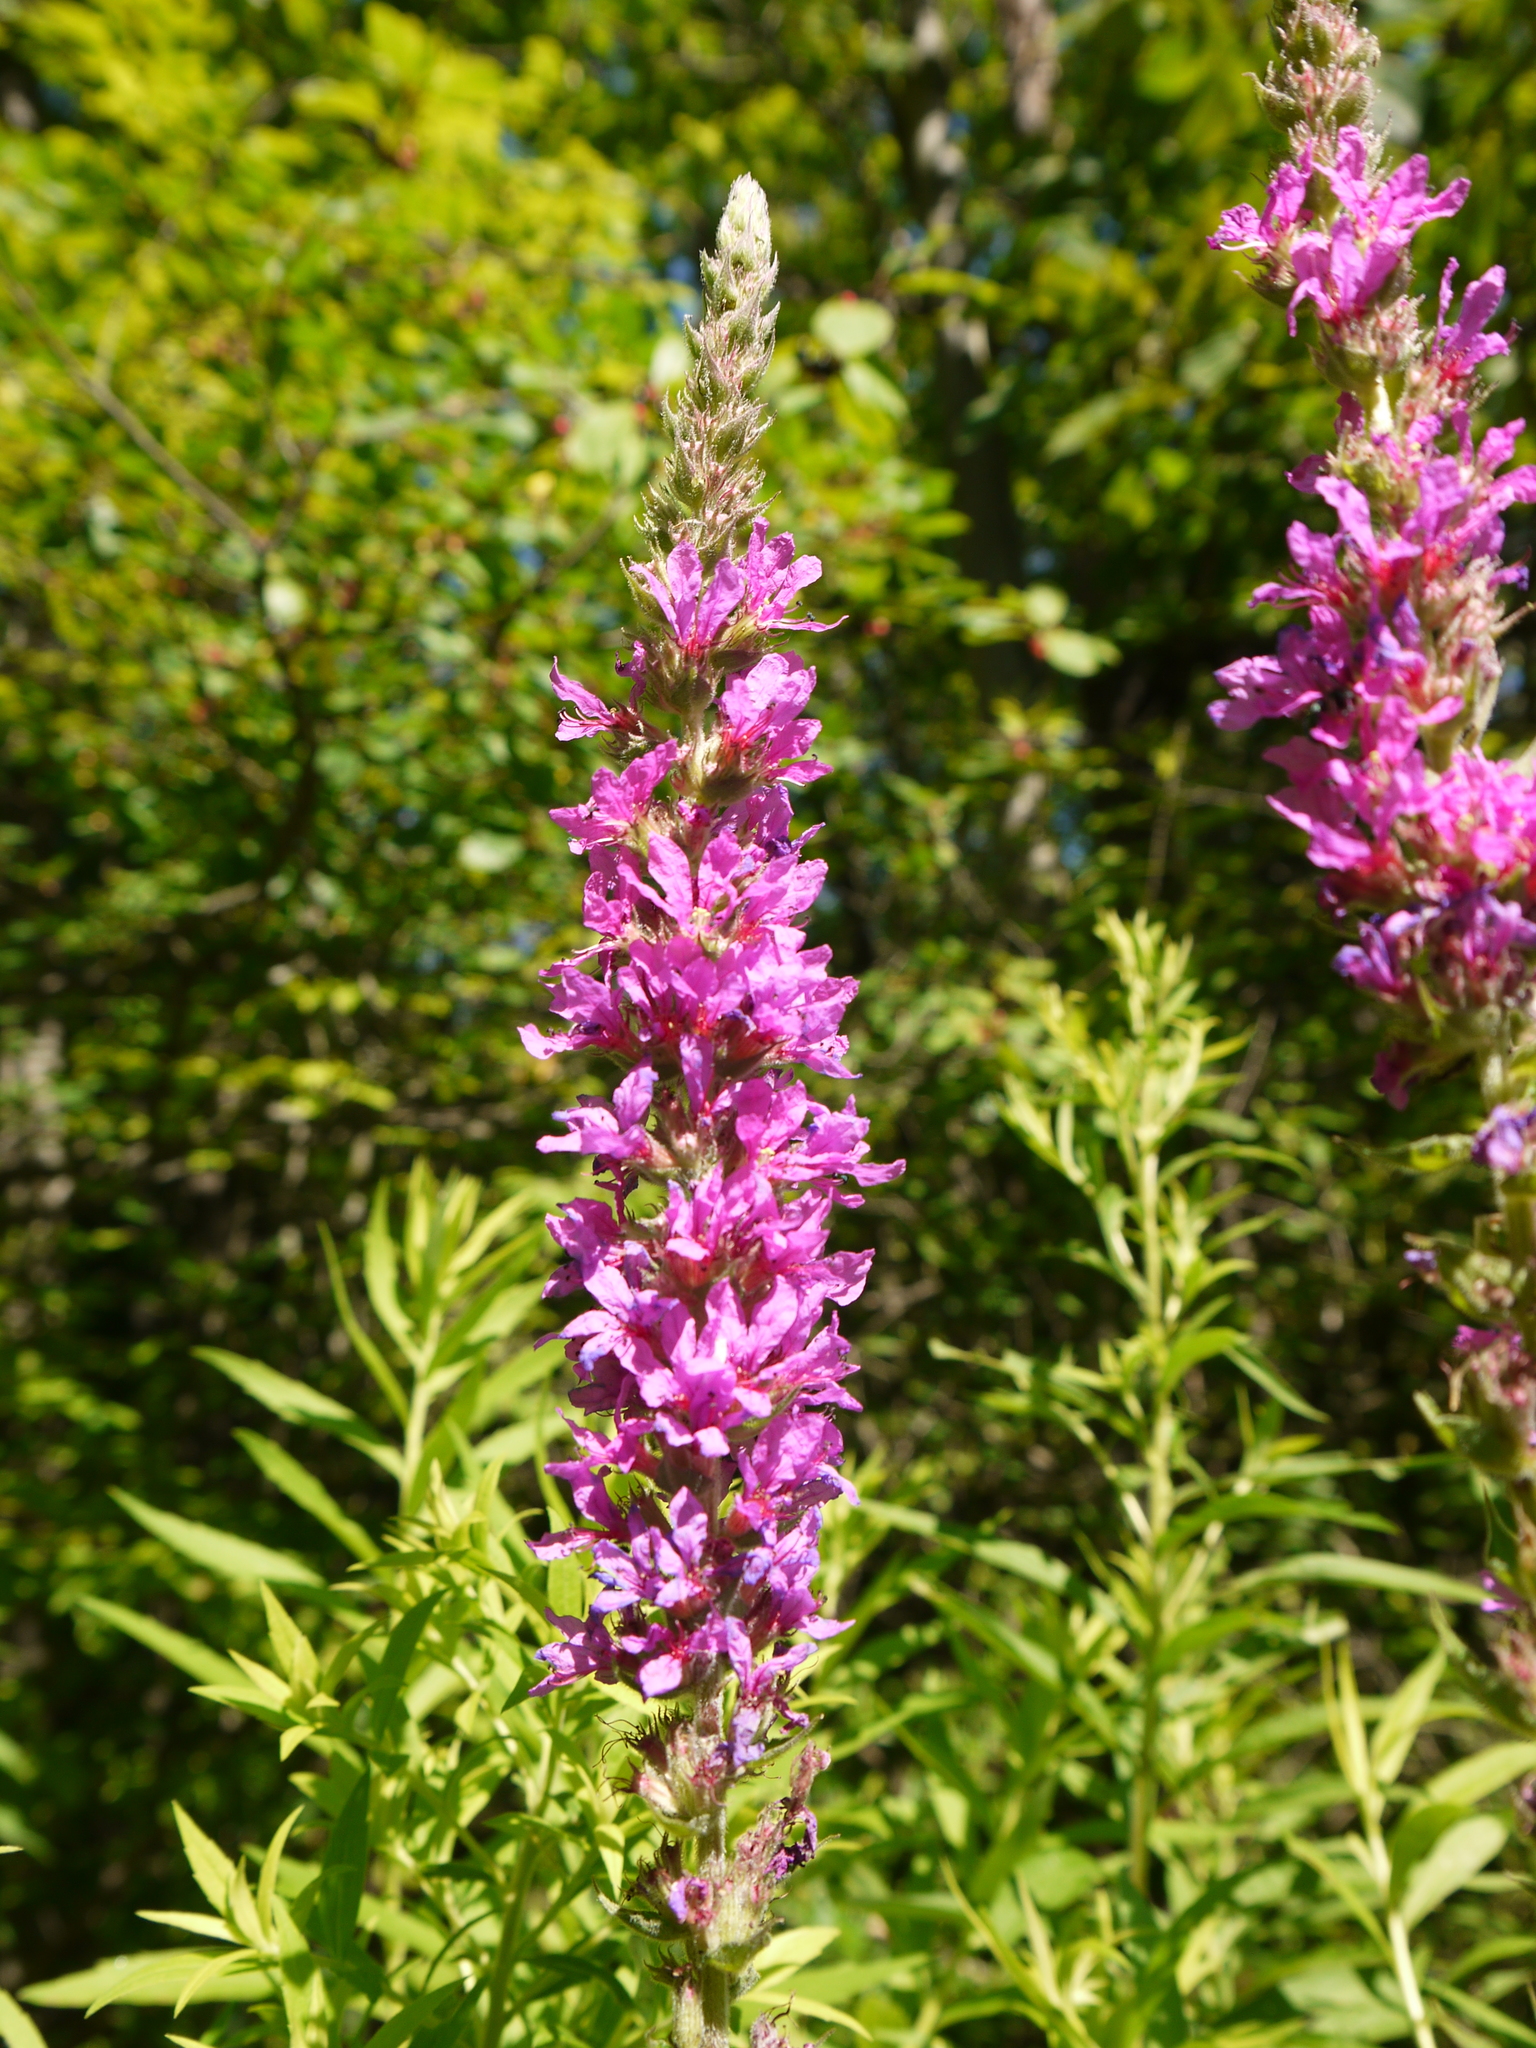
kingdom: Plantae
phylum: Tracheophyta
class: Magnoliopsida
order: Myrtales
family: Lythraceae
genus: Lythrum
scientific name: Lythrum salicaria
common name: Purple loosestrife
